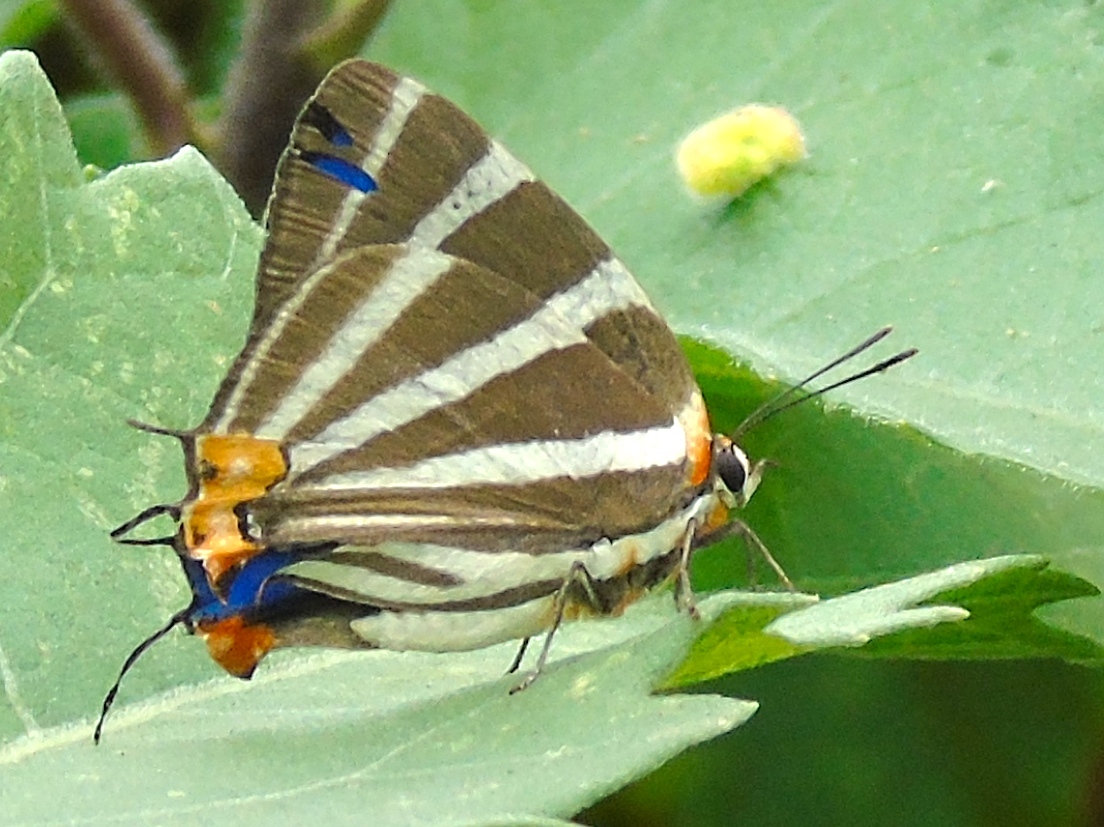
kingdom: Animalia
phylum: Arthropoda
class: Insecta
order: Lepidoptera
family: Lycaenidae
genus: Thecla
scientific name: Thecla bathildis
